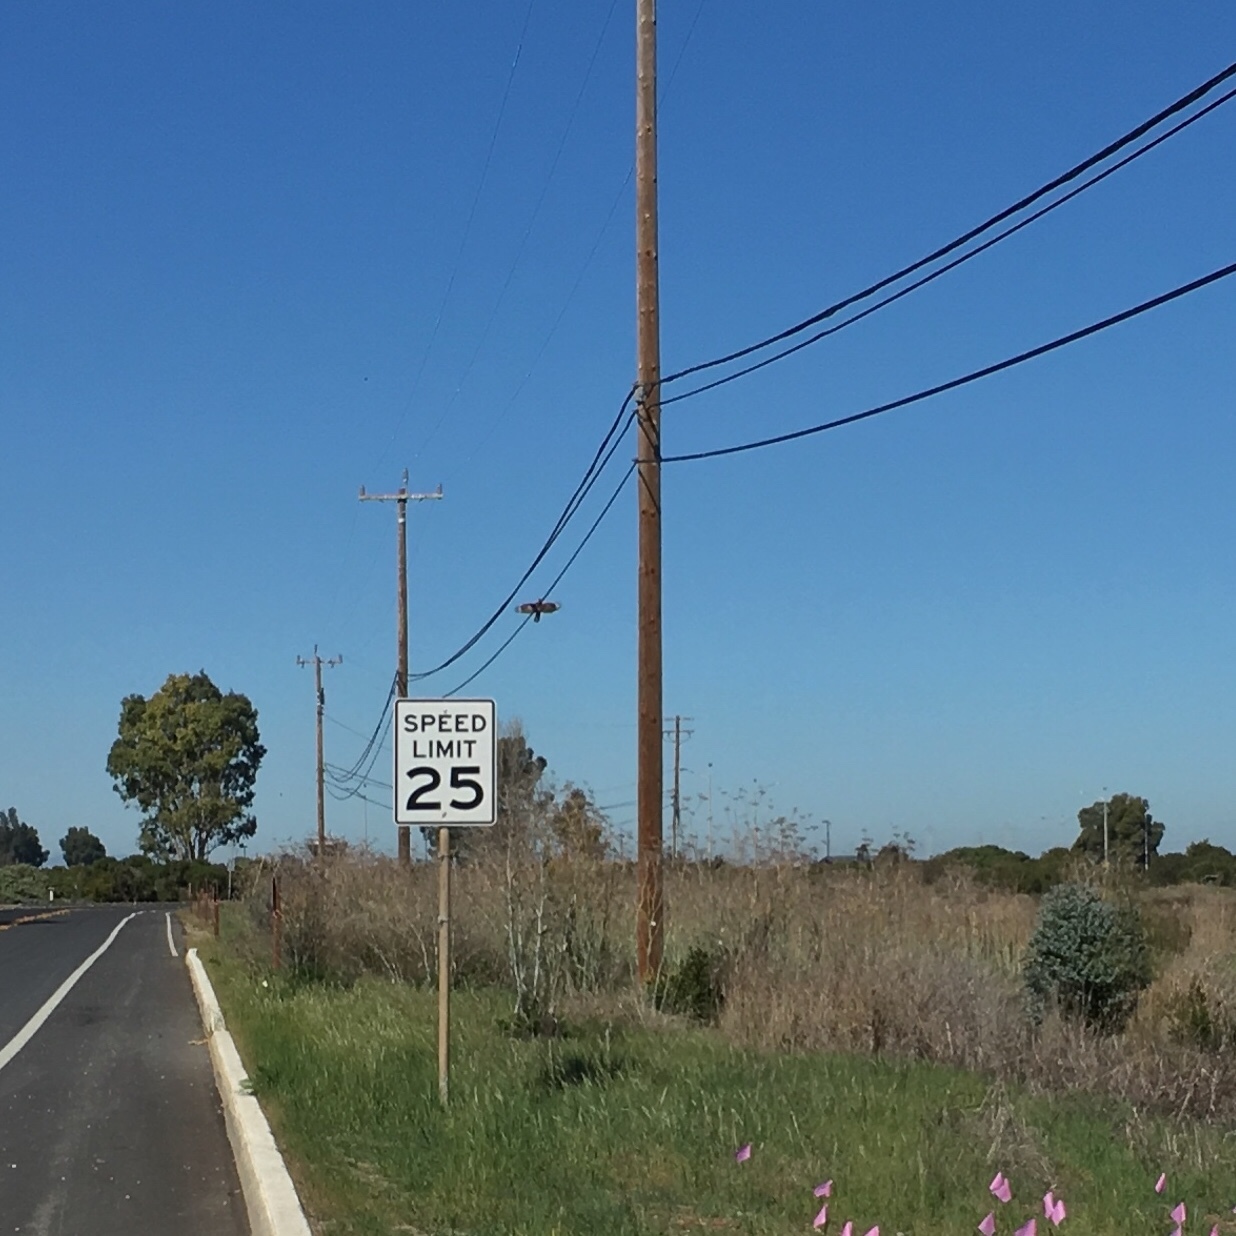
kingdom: Animalia
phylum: Chordata
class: Aves
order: Accipitriformes
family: Accipitridae
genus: Buteo
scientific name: Buteo lineatus
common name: Red-shouldered hawk
